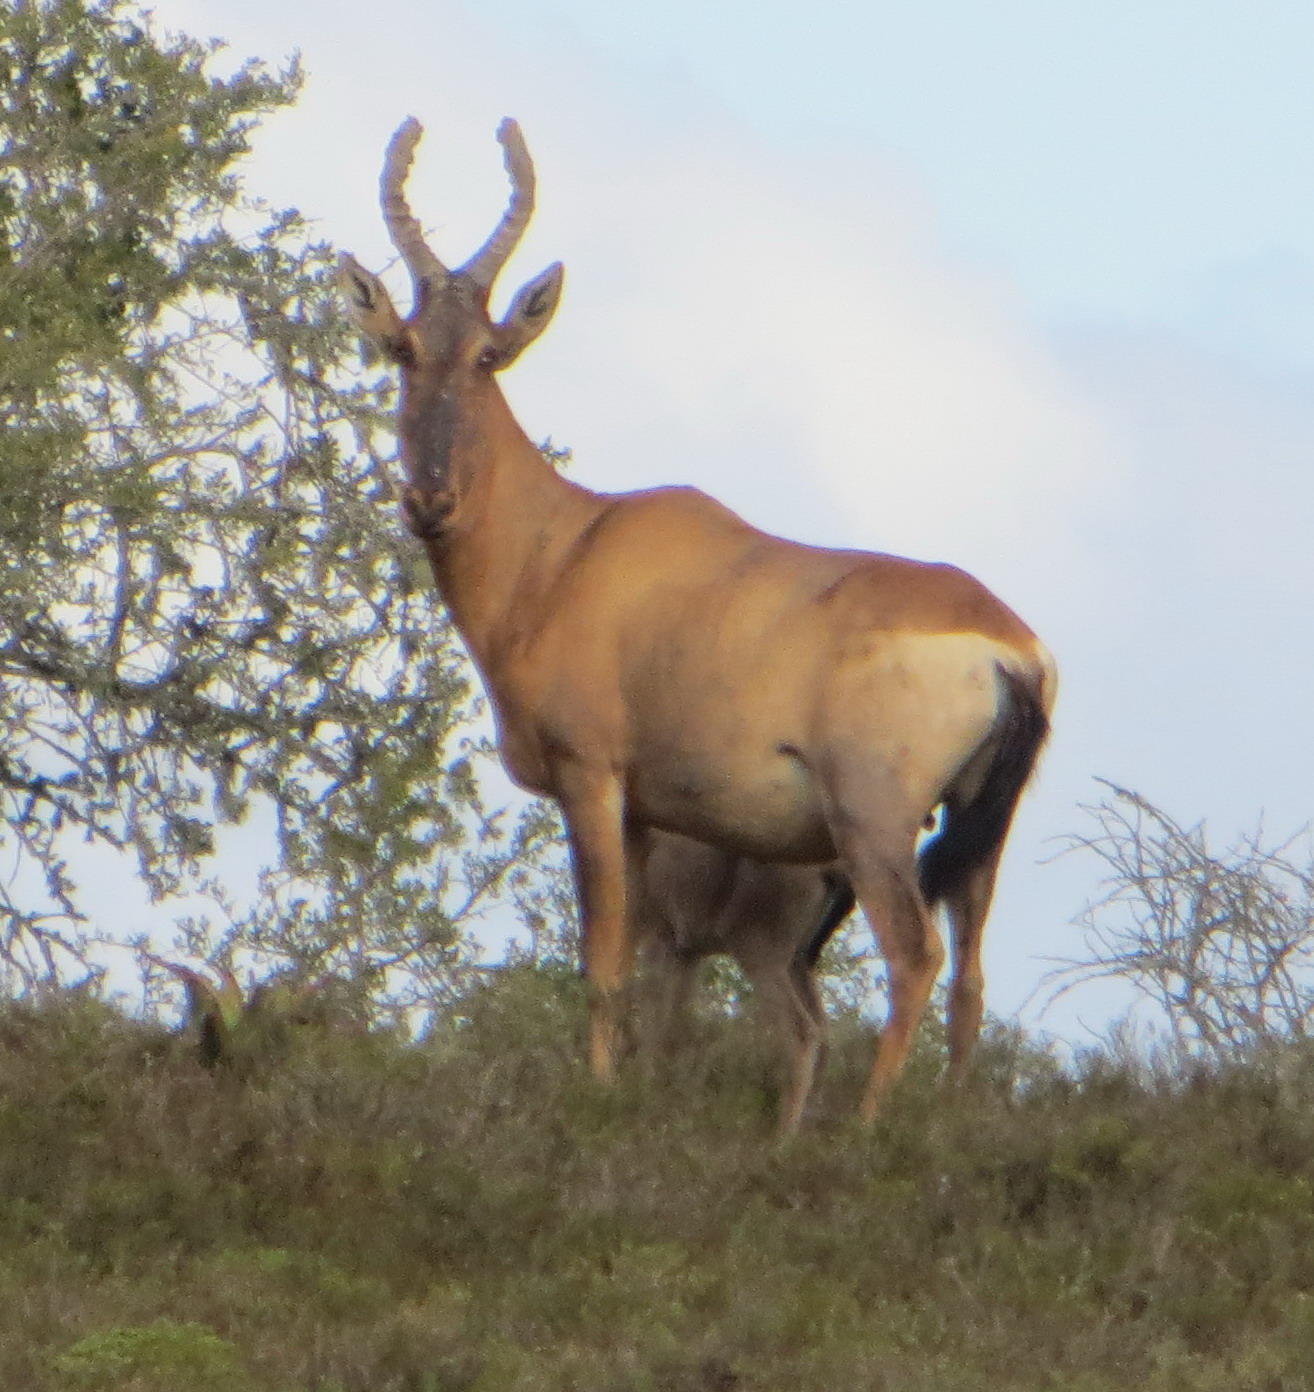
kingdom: Animalia
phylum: Chordata
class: Mammalia
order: Artiodactyla
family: Bovidae
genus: Alcelaphus
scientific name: Alcelaphus caama
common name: Red hartebeest
